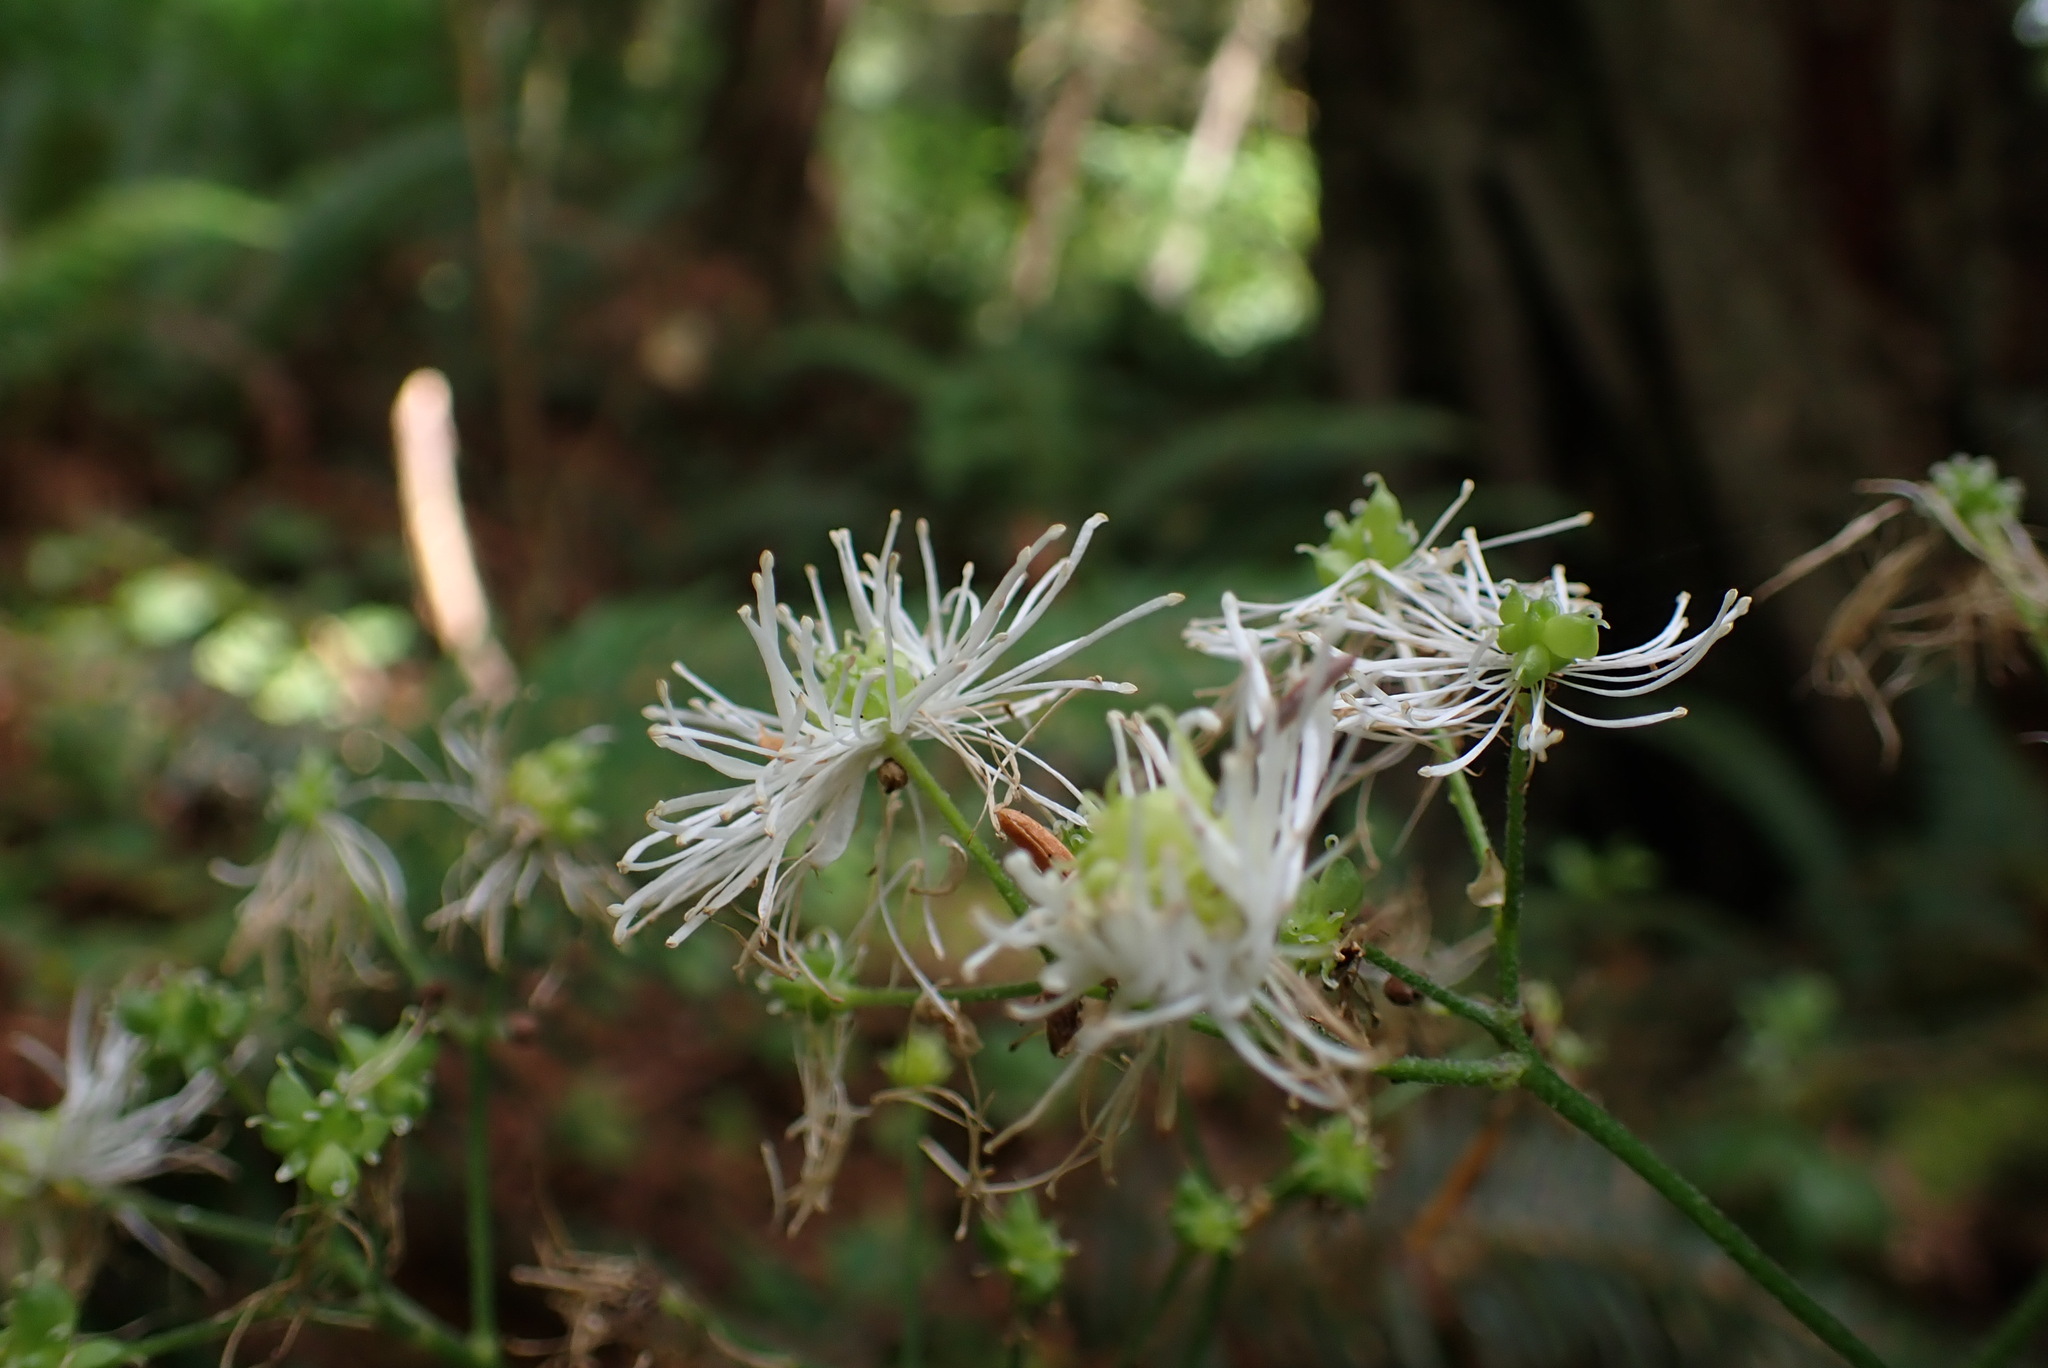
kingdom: Plantae
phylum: Tracheophyta
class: Magnoliopsida
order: Ranunculales
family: Ranunculaceae
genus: Trautvetteria
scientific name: Trautvetteria carolinensis
